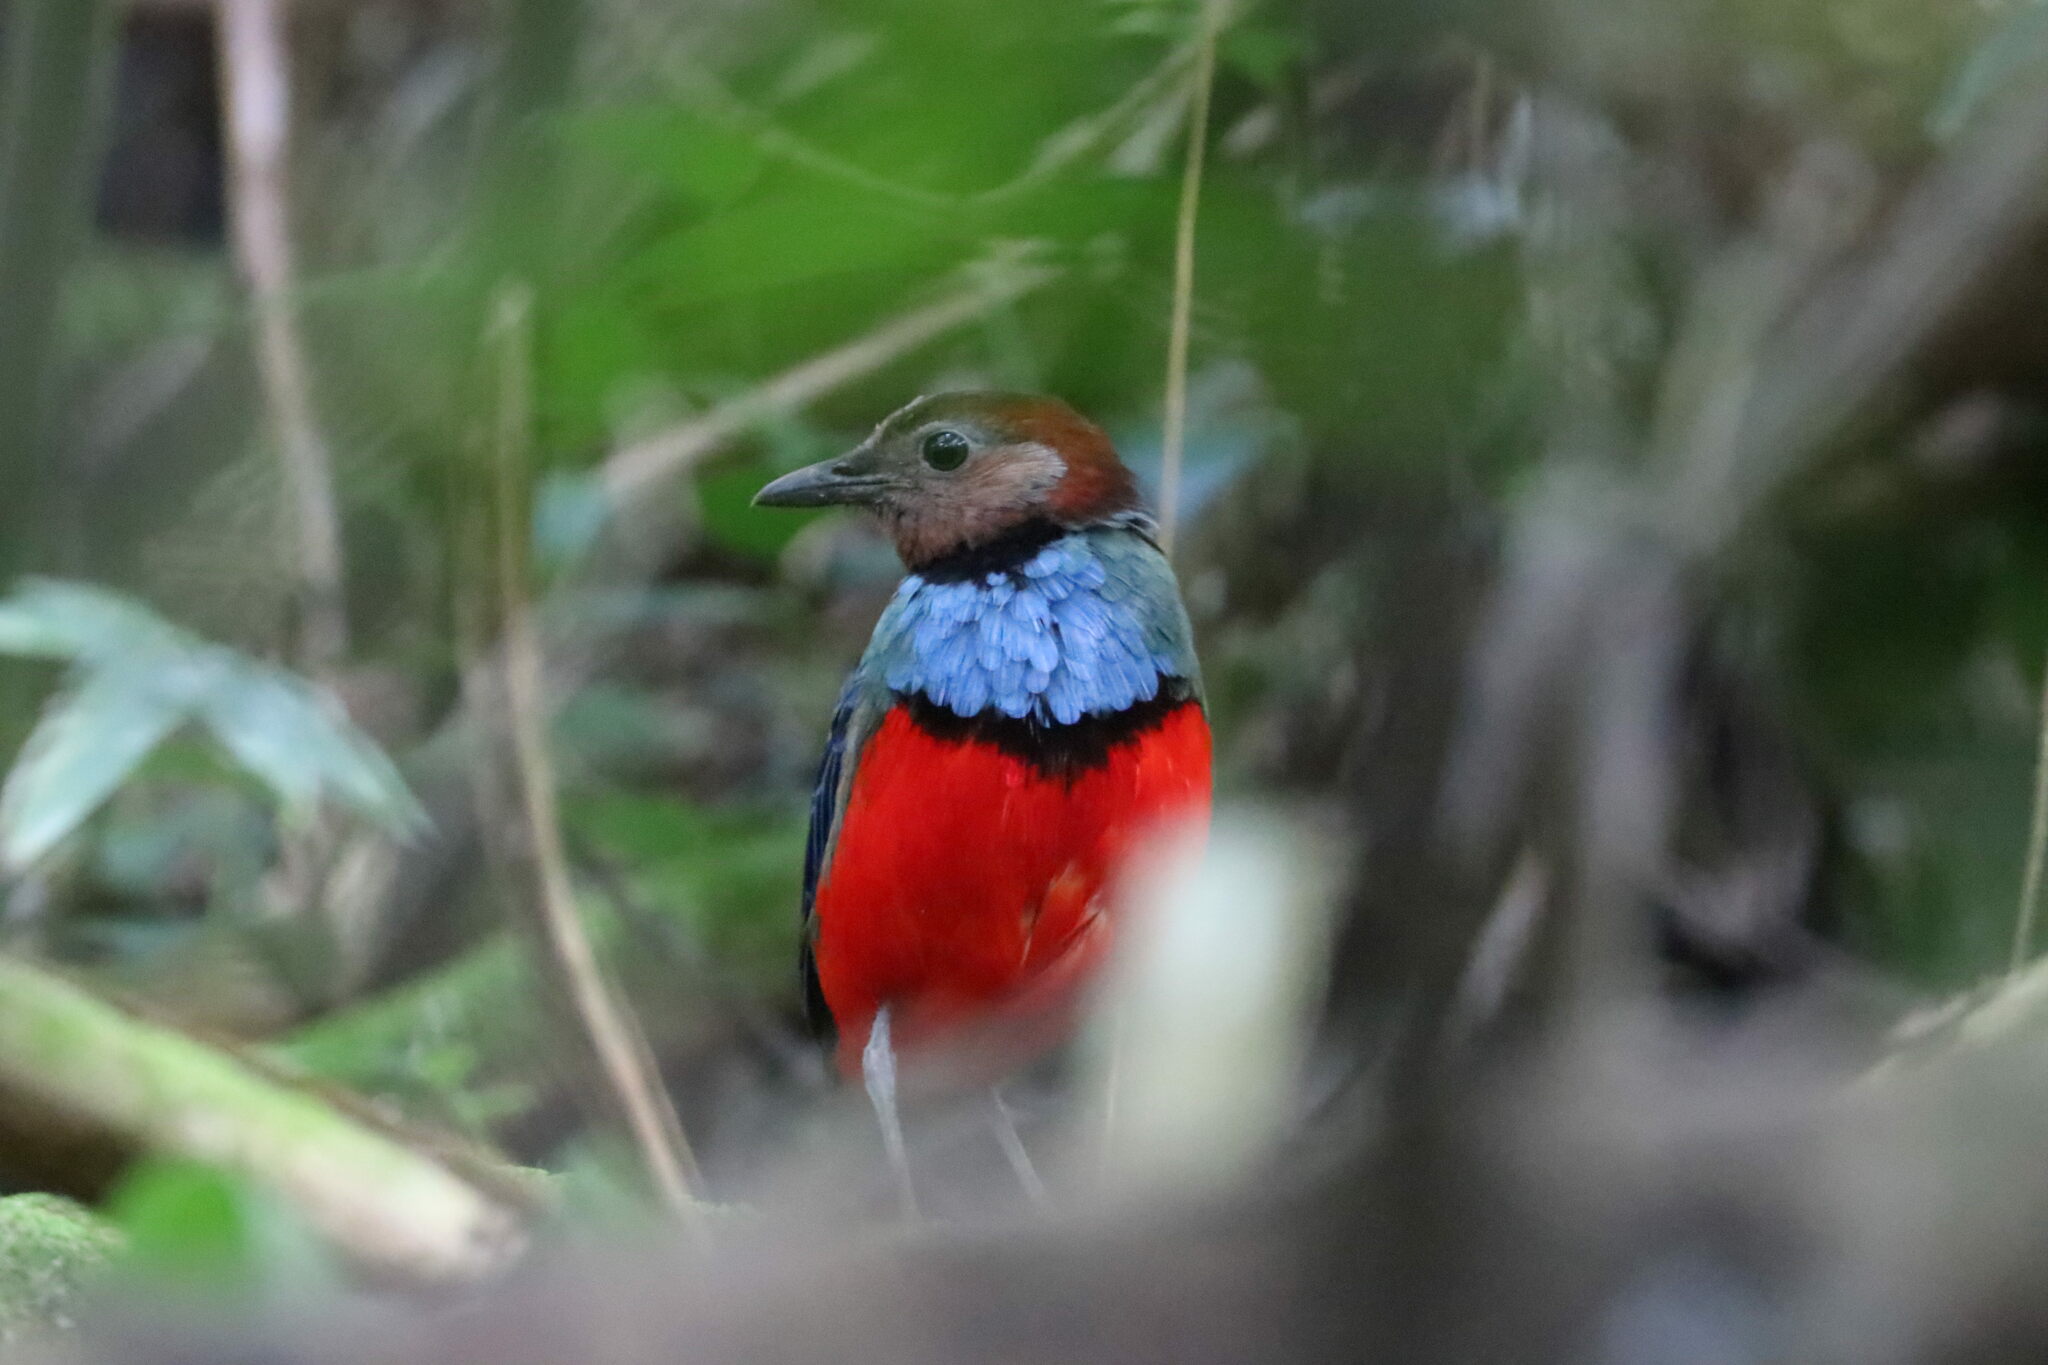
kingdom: Animalia
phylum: Chordata
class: Aves
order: Passeriformes
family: Pittidae
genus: Pitta
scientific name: Pitta erythrogaster
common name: Red-bellied pitta
